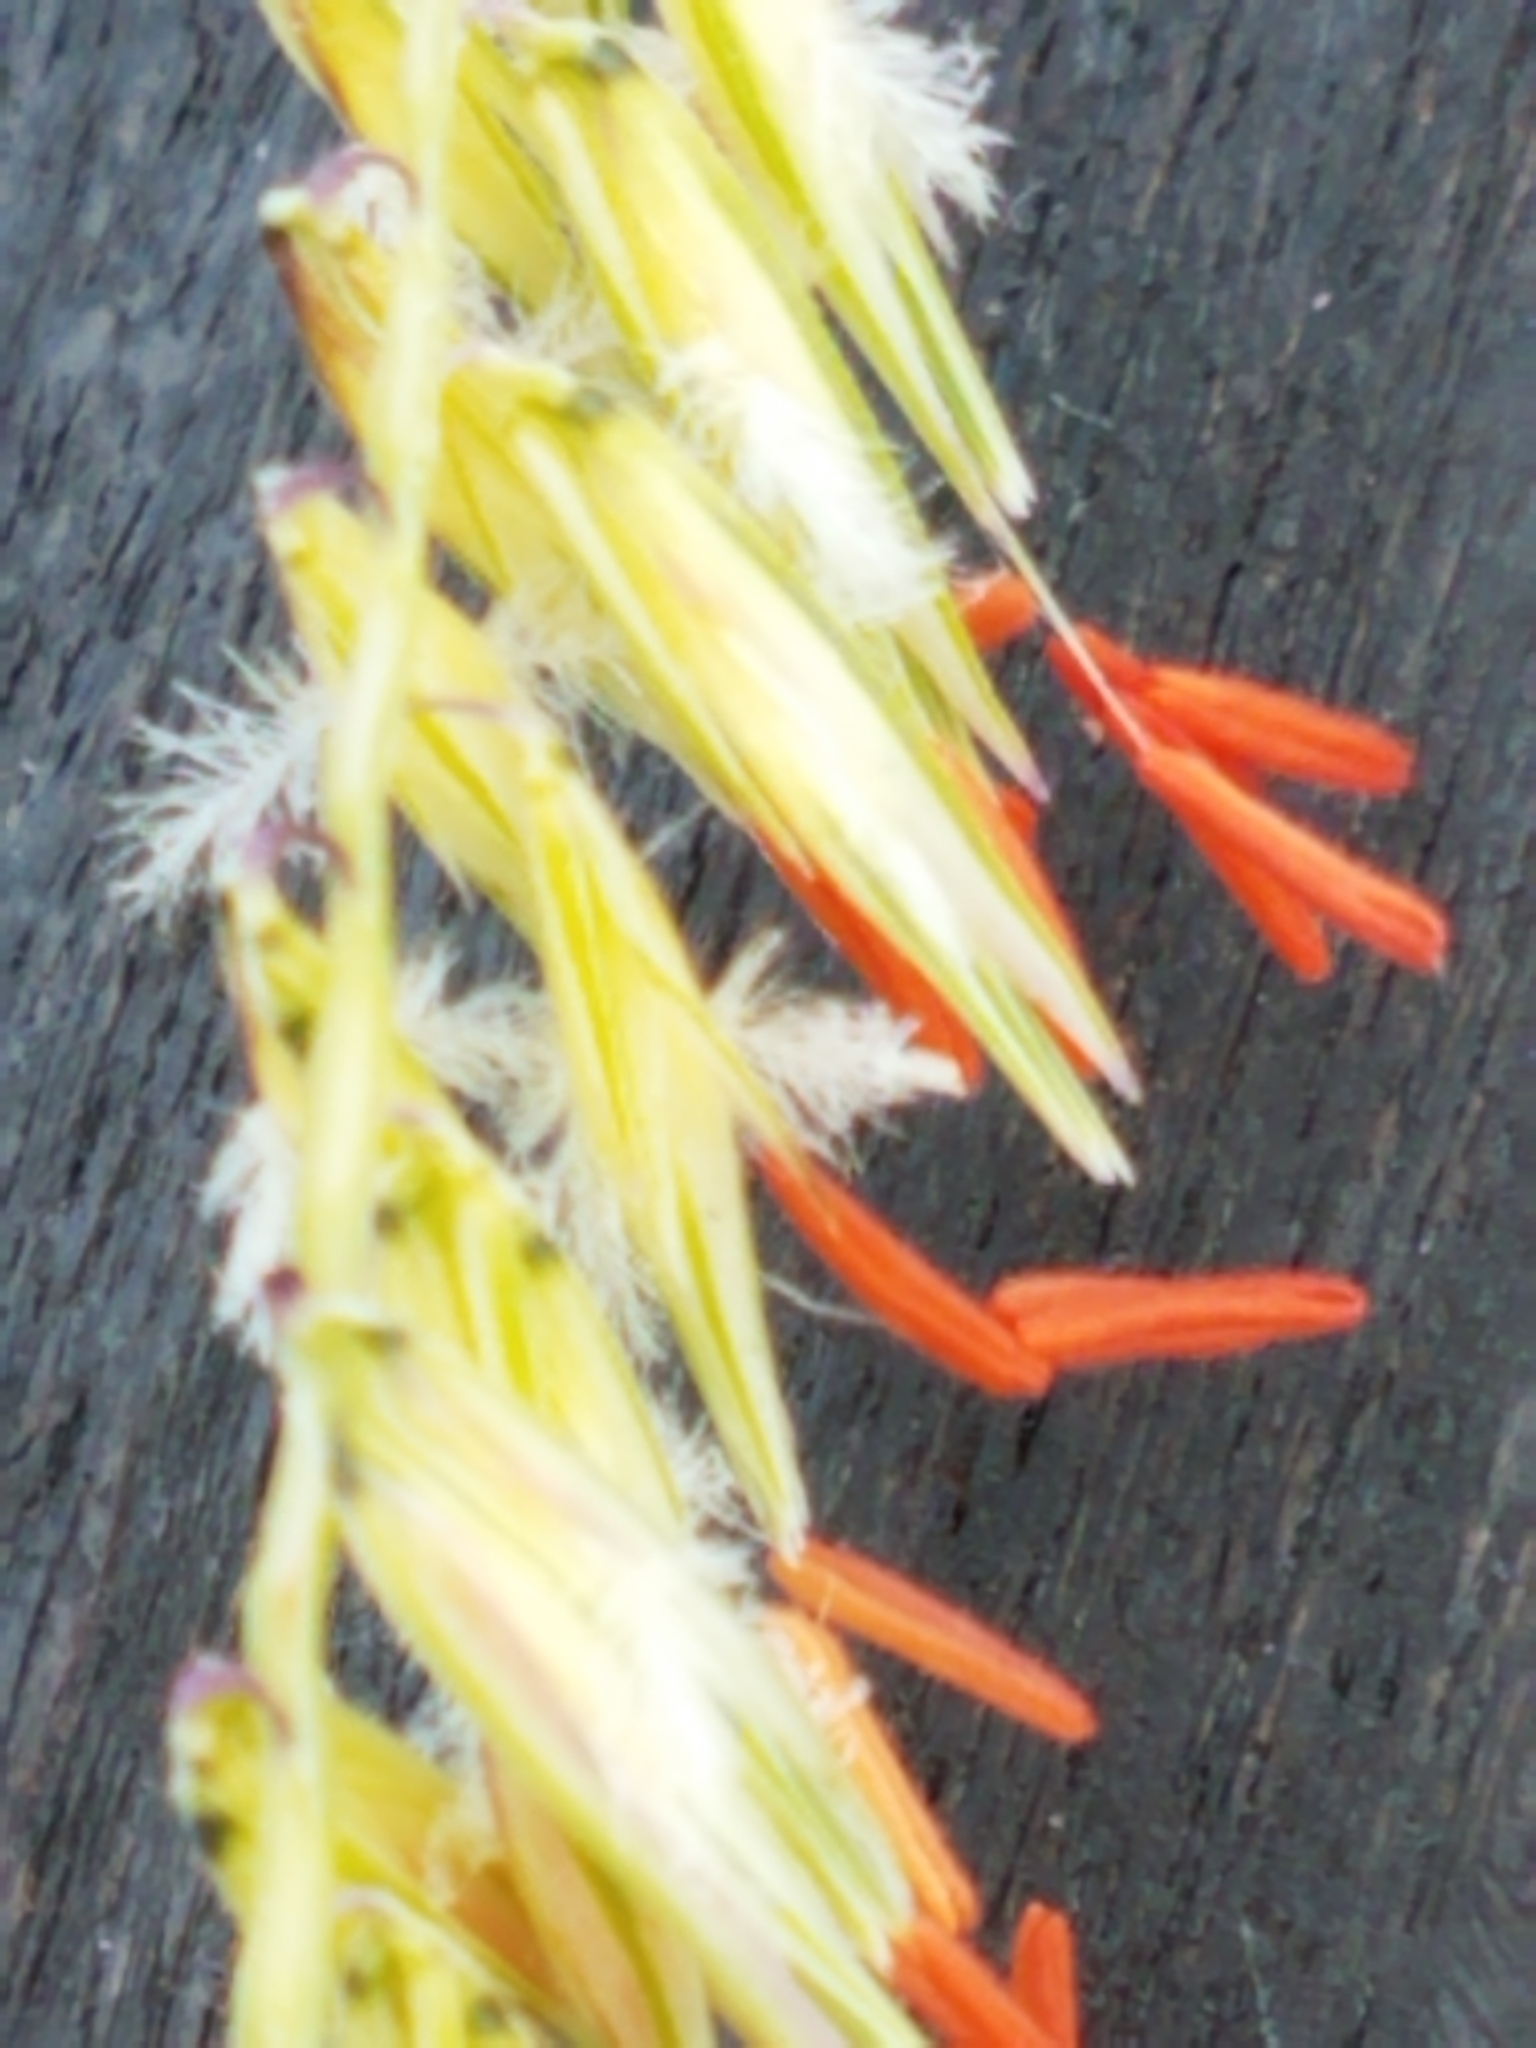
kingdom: Plantae
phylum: Tracheophyta
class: Liliopsida
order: Poales
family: Poaceae
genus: Bouteloua
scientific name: Bouteloua curtipendula
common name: Side-oats grama
